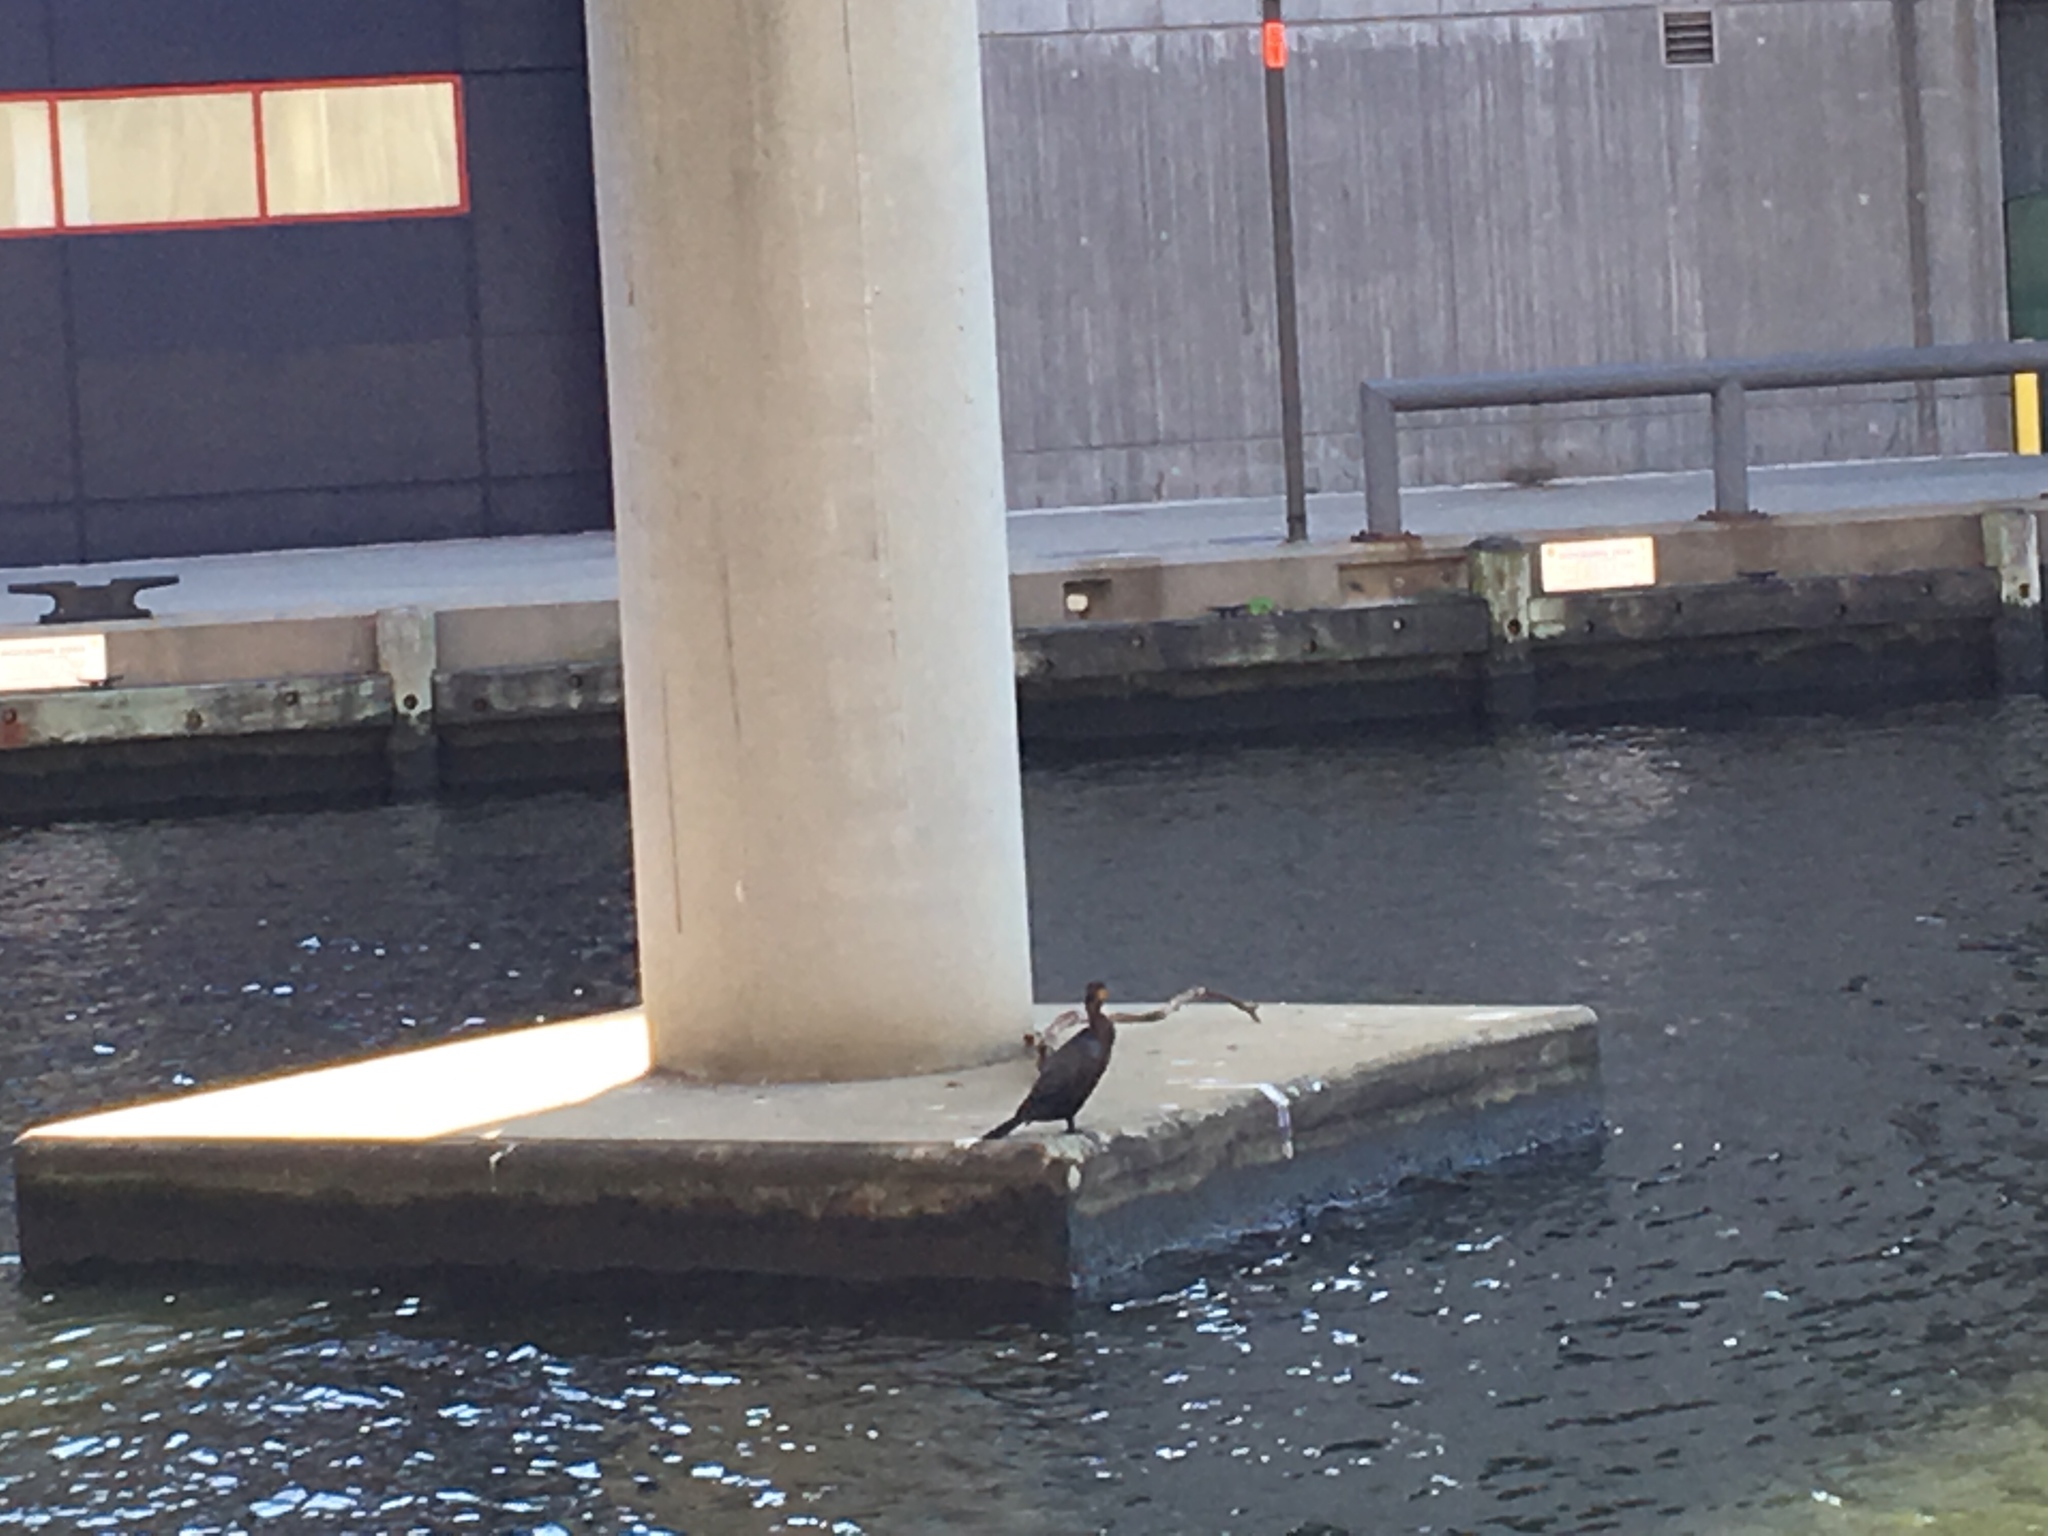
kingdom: Animalia
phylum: Chordata
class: Aves
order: Suliformes
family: Phalacrocoracidae
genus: Phalacrocorax
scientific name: Phalacrocorax auritus
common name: Double-crested cormorant
